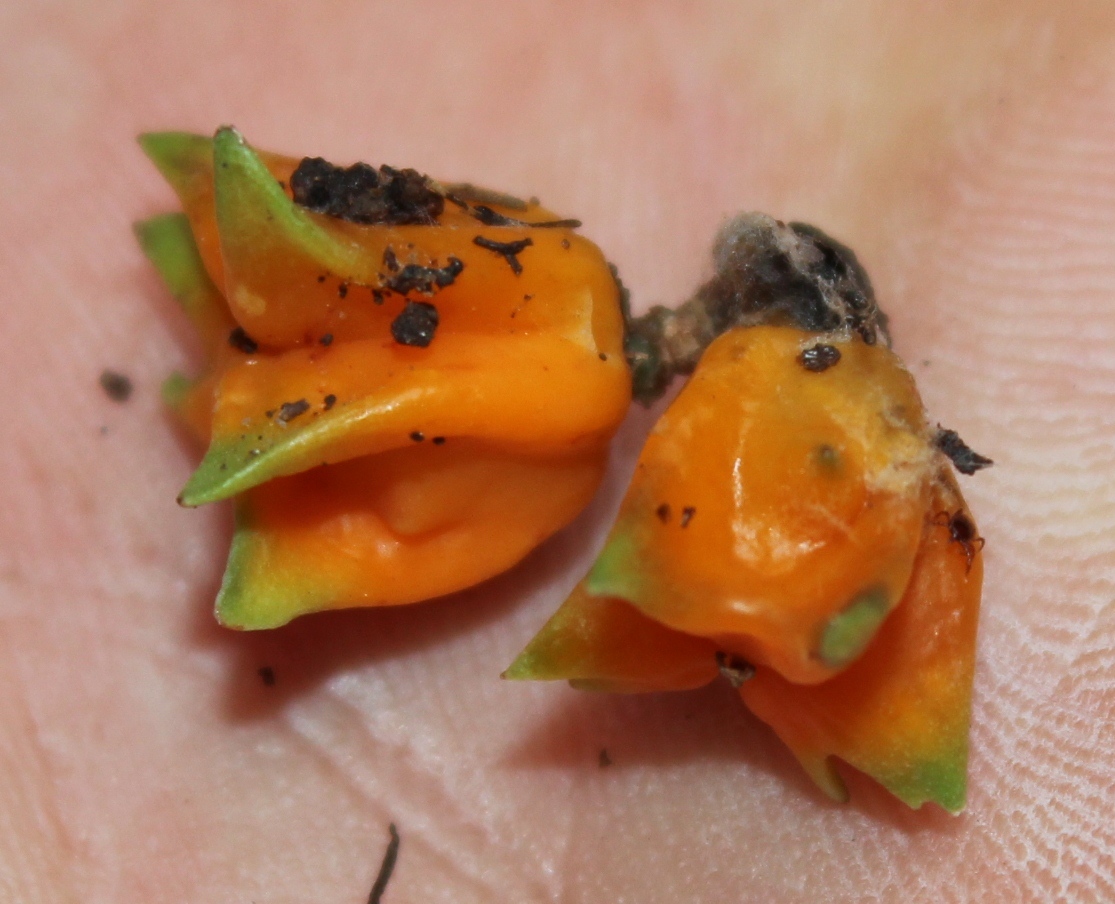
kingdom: Plantae
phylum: Tracheophyta
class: Magnoliopsida
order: Celastrales
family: Celastraceae
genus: Pterocelastrus
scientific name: Pterocelastrus tricuspidatus
